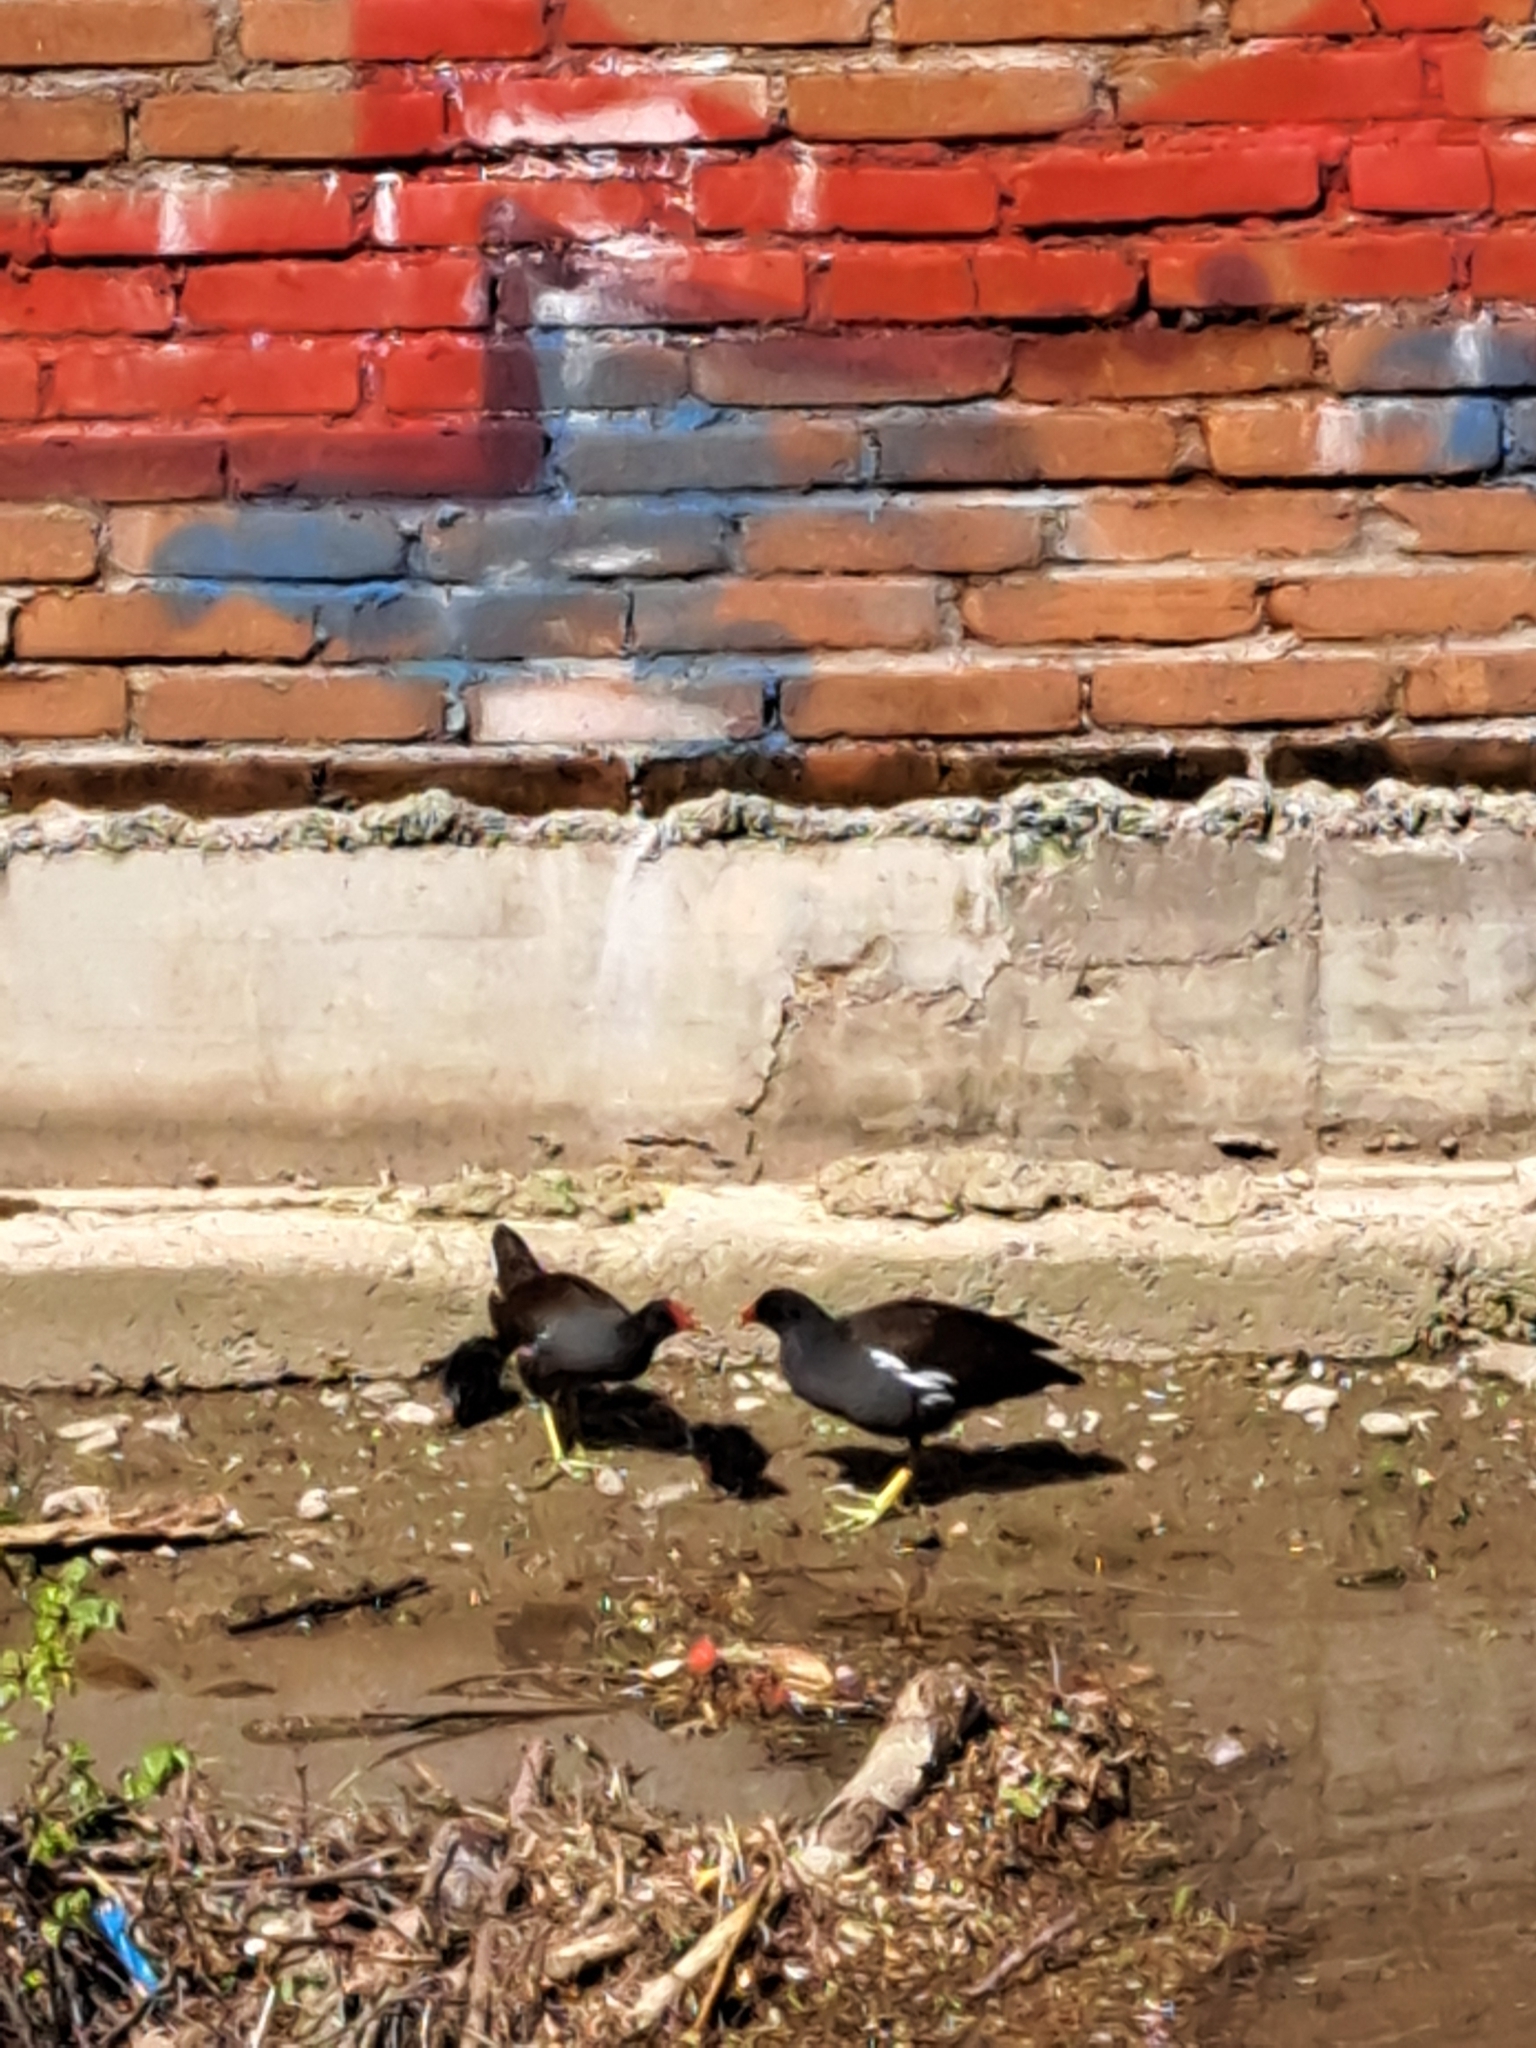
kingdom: Animalia
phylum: Chordata
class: Aves
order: Gruiformes
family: Rallidae
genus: Gallinula
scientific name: Gallinula chloropus
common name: Common moorhen
